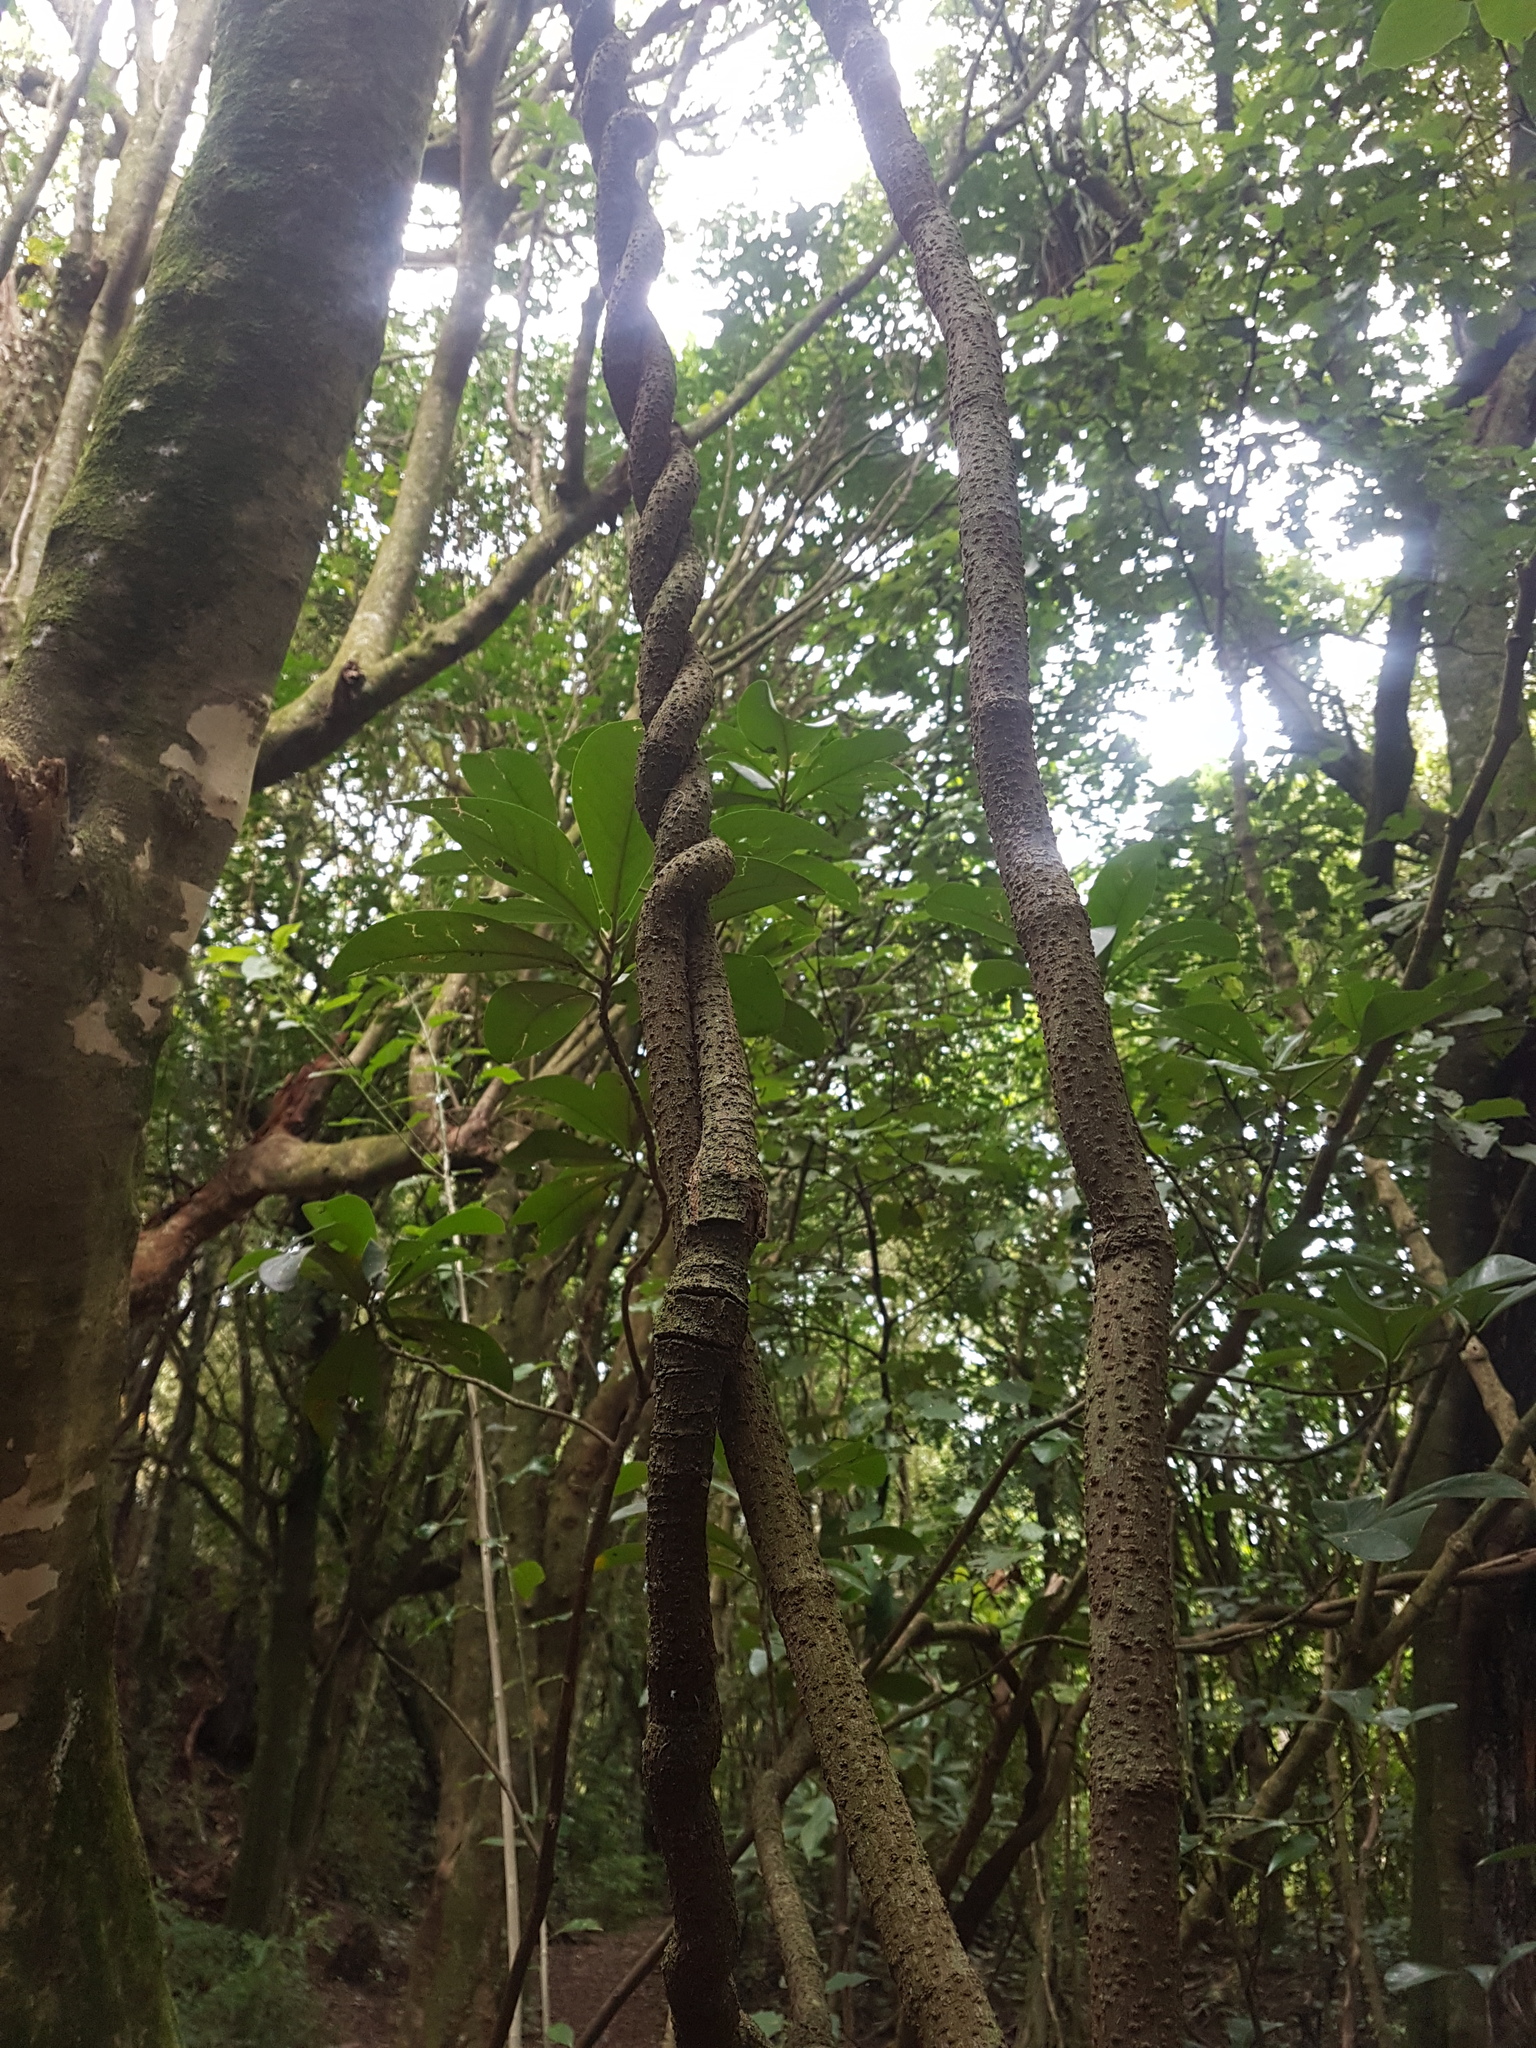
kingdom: Plantae
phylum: Tracheophyta
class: Magnoliopsida
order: Malpighiales
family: Passifloraceae
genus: Passiflora
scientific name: Passiflora tetrandra
